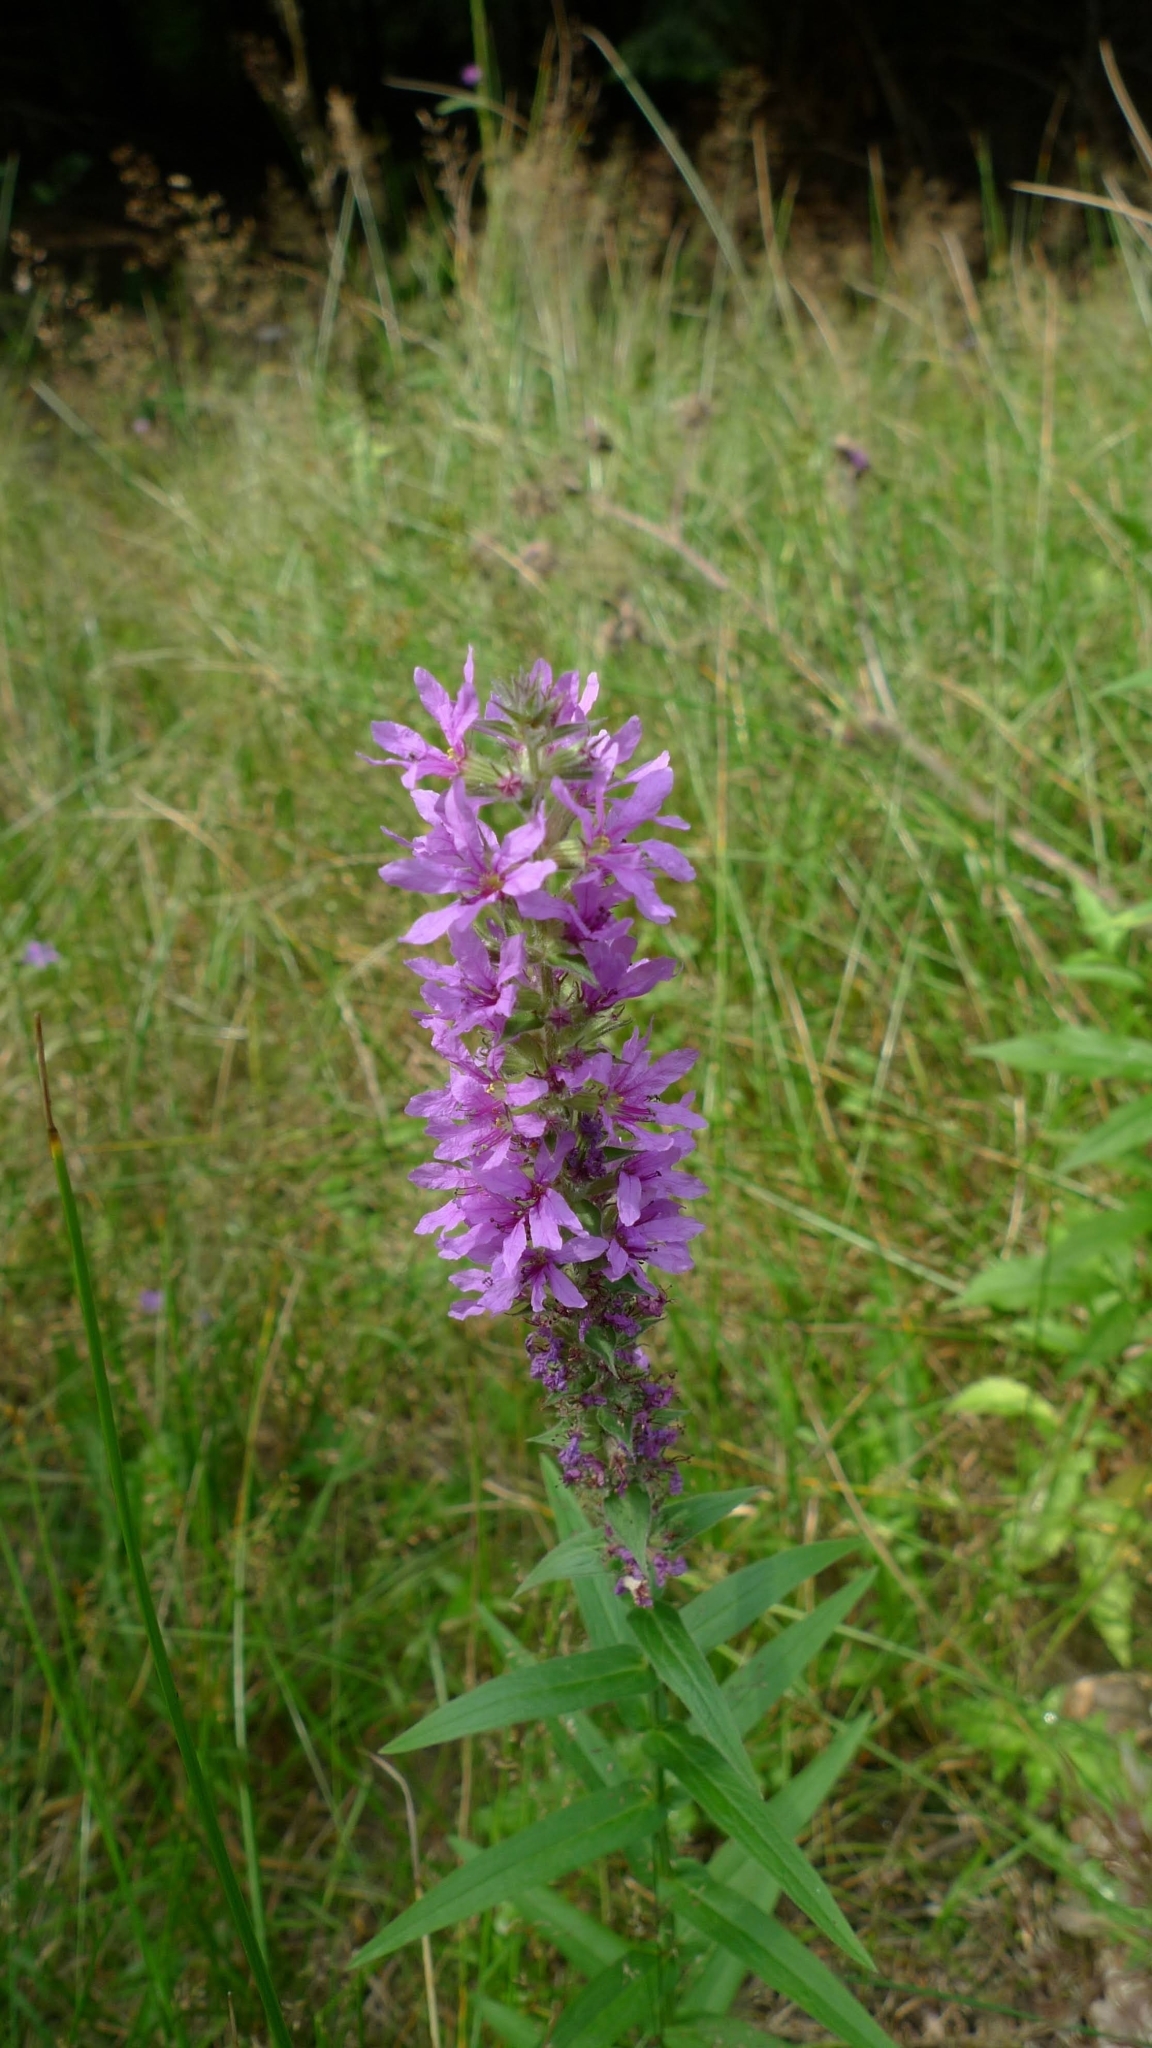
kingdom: Plantae
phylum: Tracheophyta
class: Magnoliopsida
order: Myrtales
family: Lythraceae
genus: Lythrum
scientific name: Lythrum salicaria
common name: Purple loosestrife
